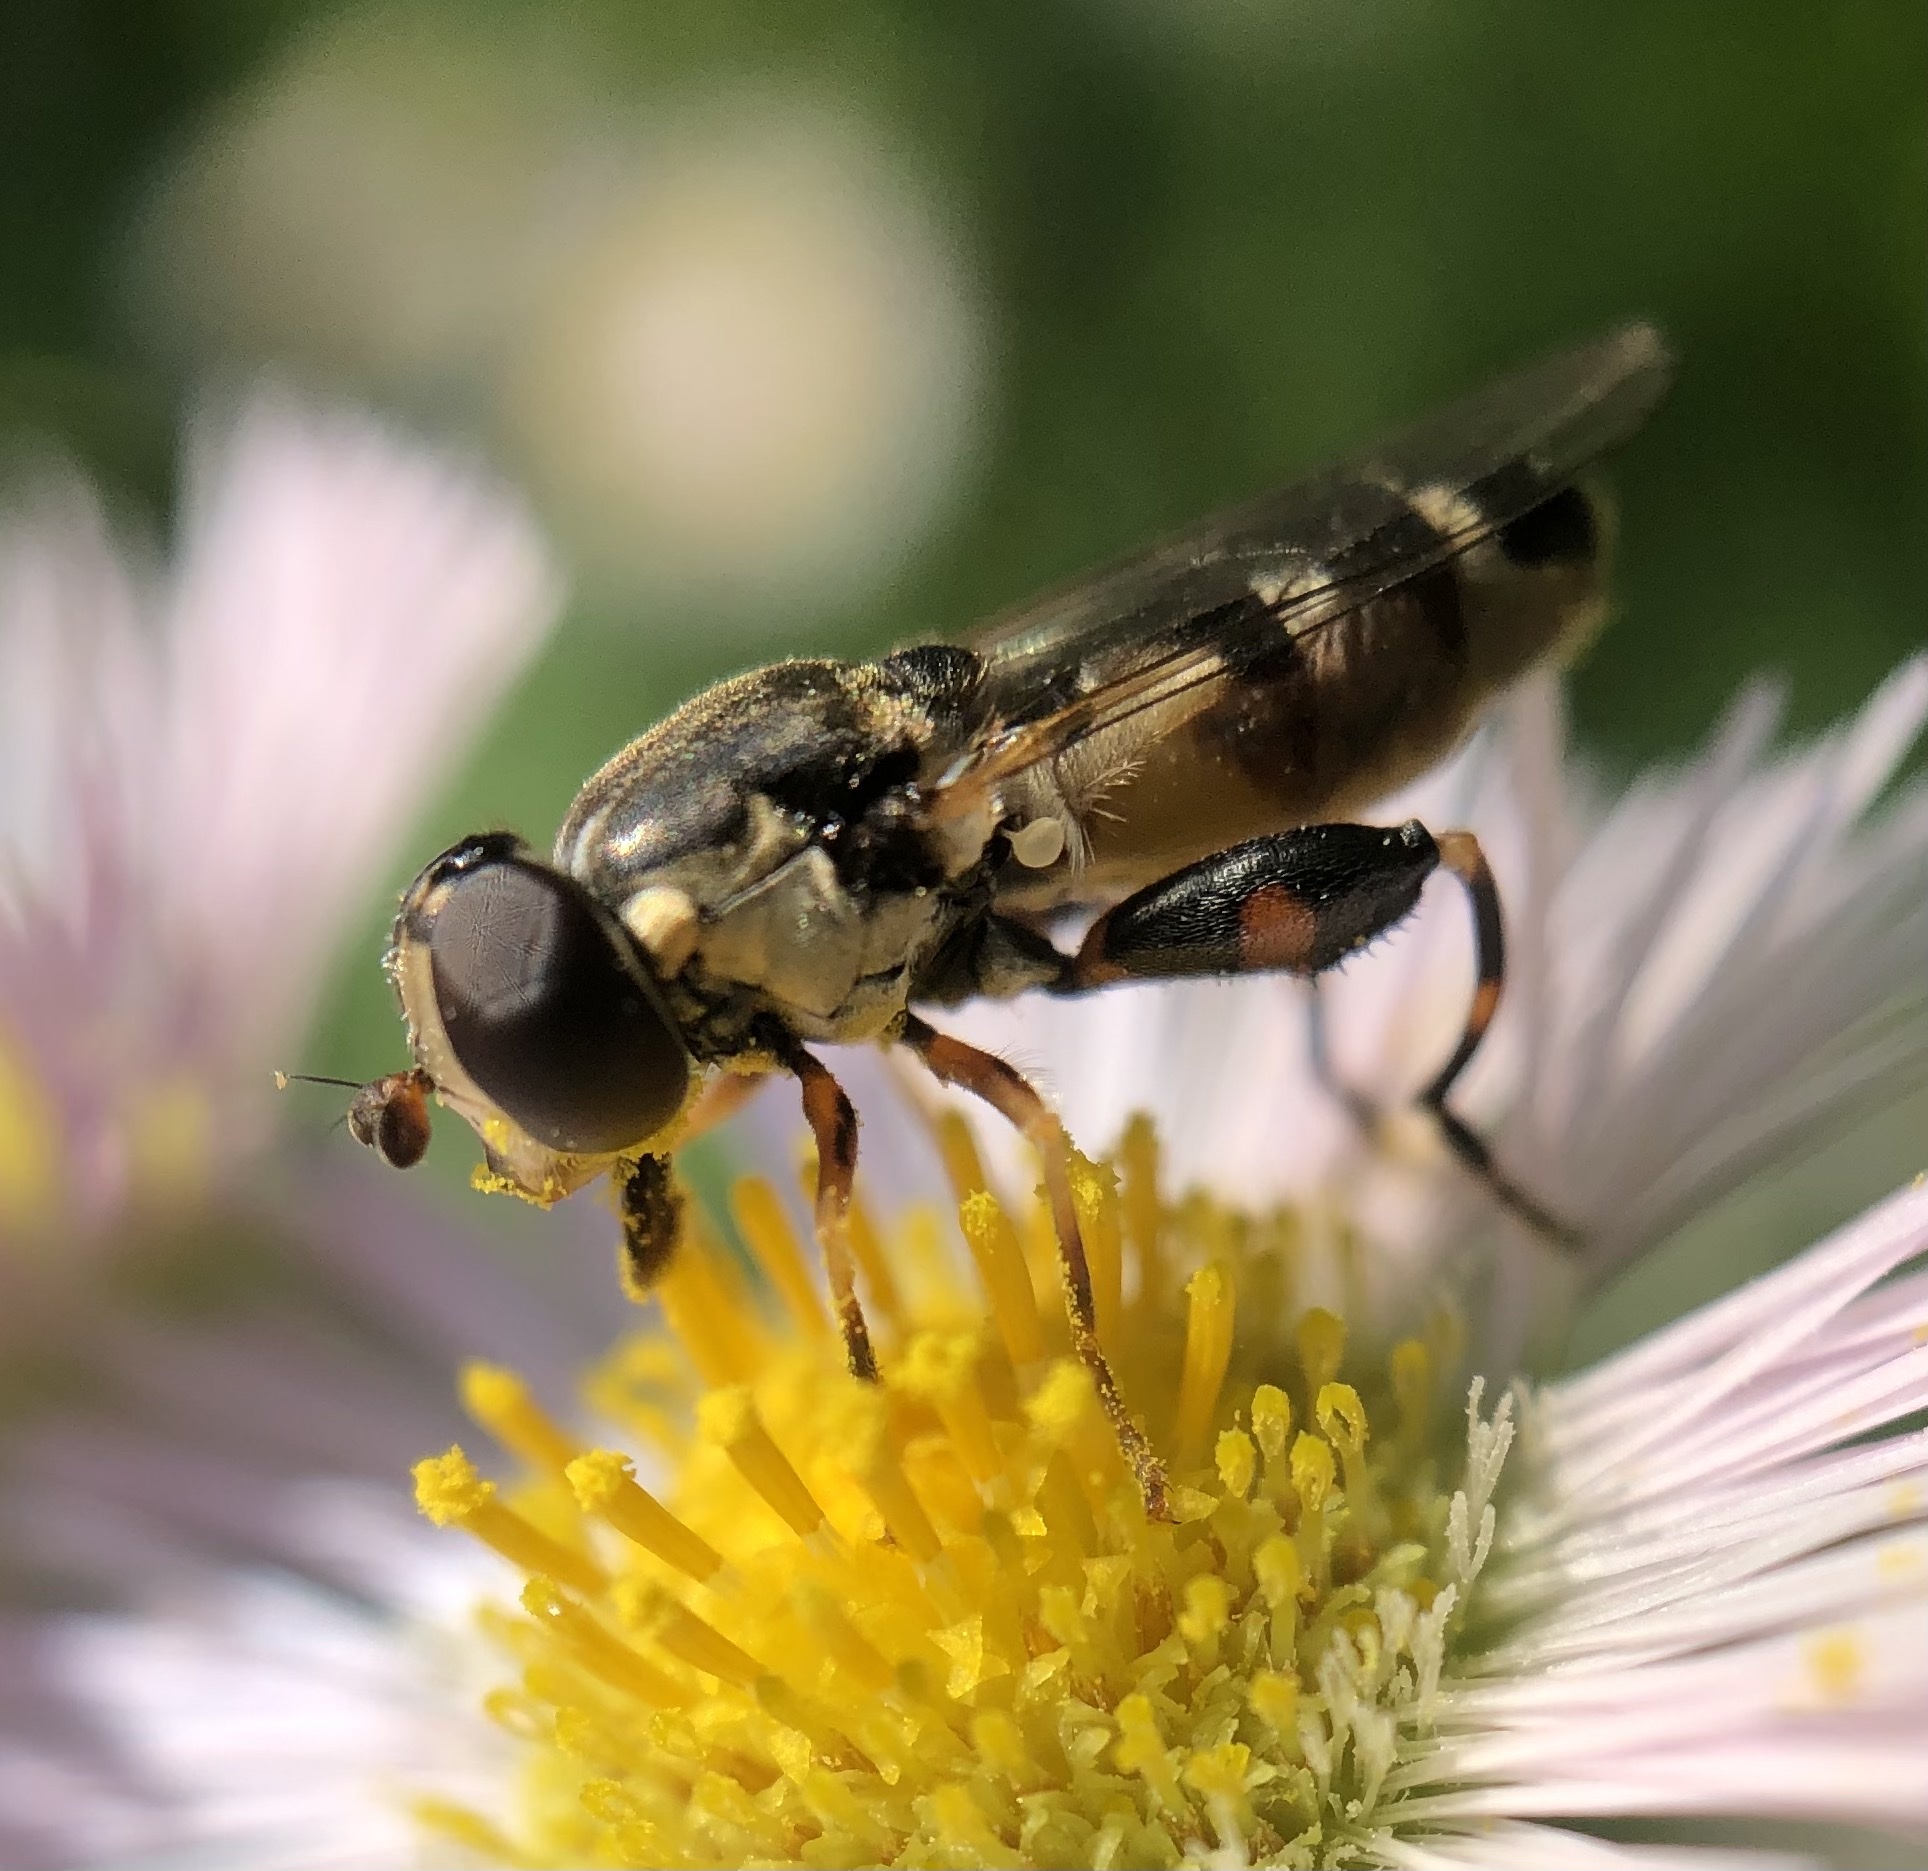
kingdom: Animalia
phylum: Arthropoda
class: Insecta
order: Diptera
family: Syrphidae
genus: Syritta
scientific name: Syritta pipiens
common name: Hover fly
